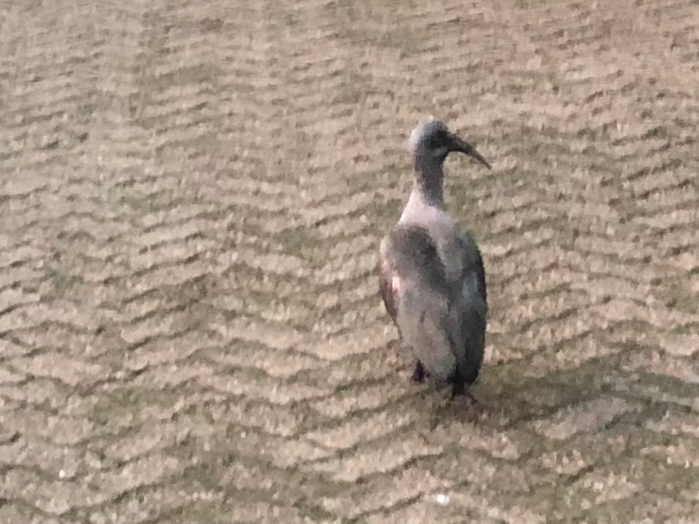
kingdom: Animalia
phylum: Chordata
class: Aves
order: Pelecaniformes
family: Threskiornithidae
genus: Bostrychia
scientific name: Bostrychia hagedash
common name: Hadada ibis
